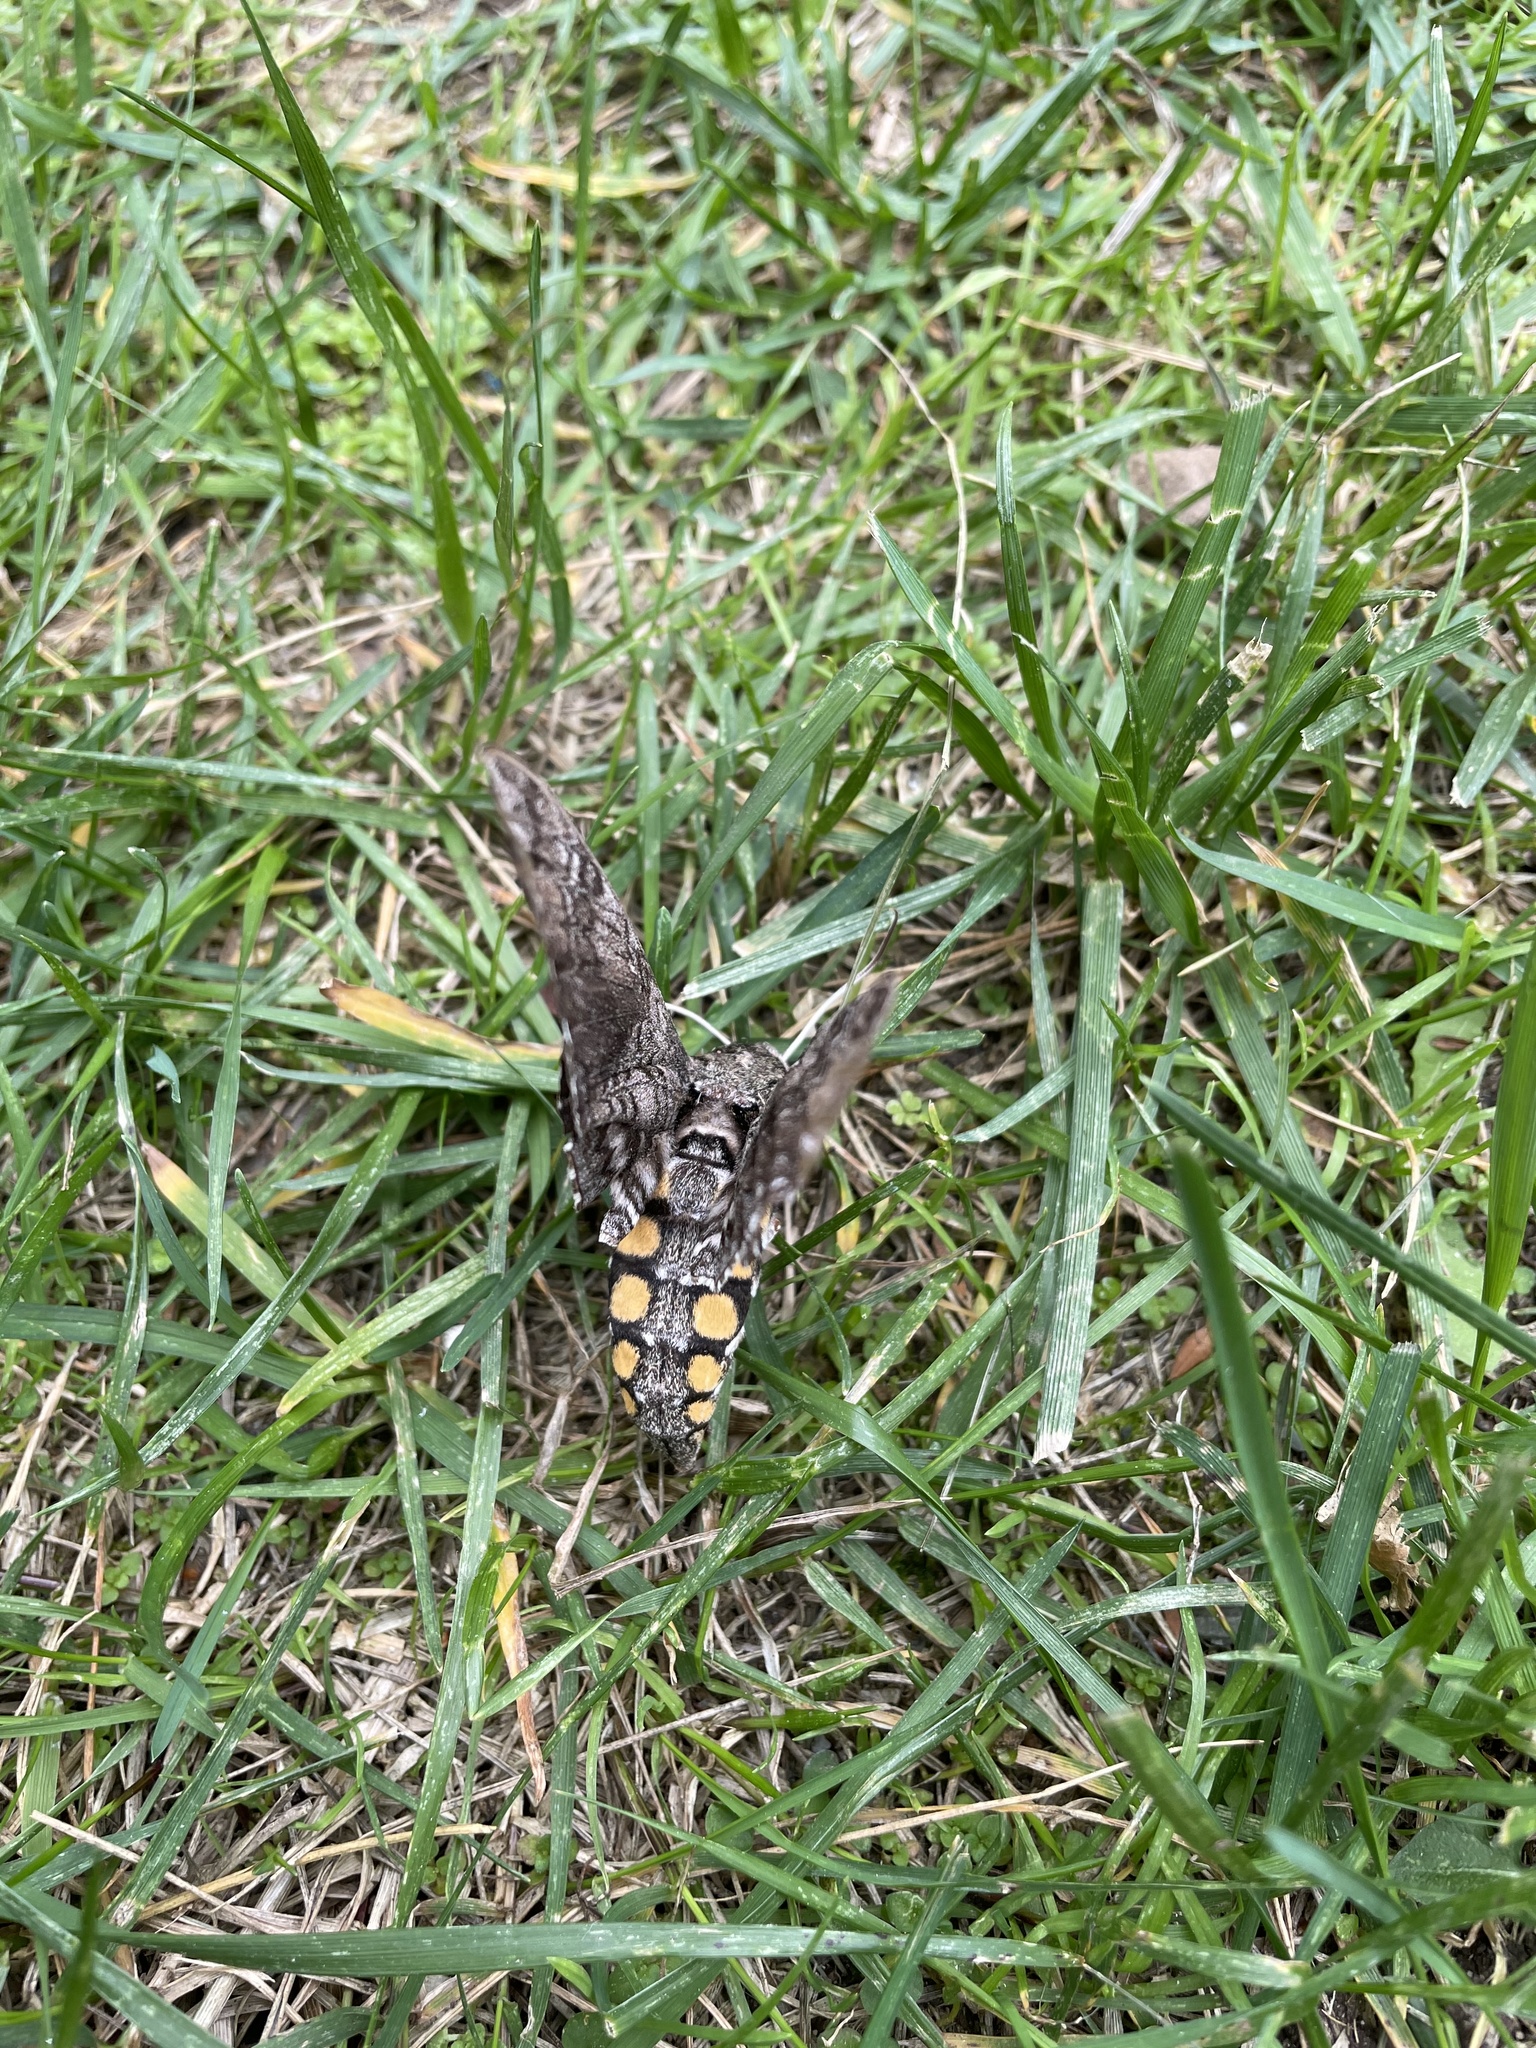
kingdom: Animalia
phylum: Arthropoda
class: Insecta
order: Lepidoptera
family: Sphingidae
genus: Manduca
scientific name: Manduca sexta
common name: Carolina sphinx
